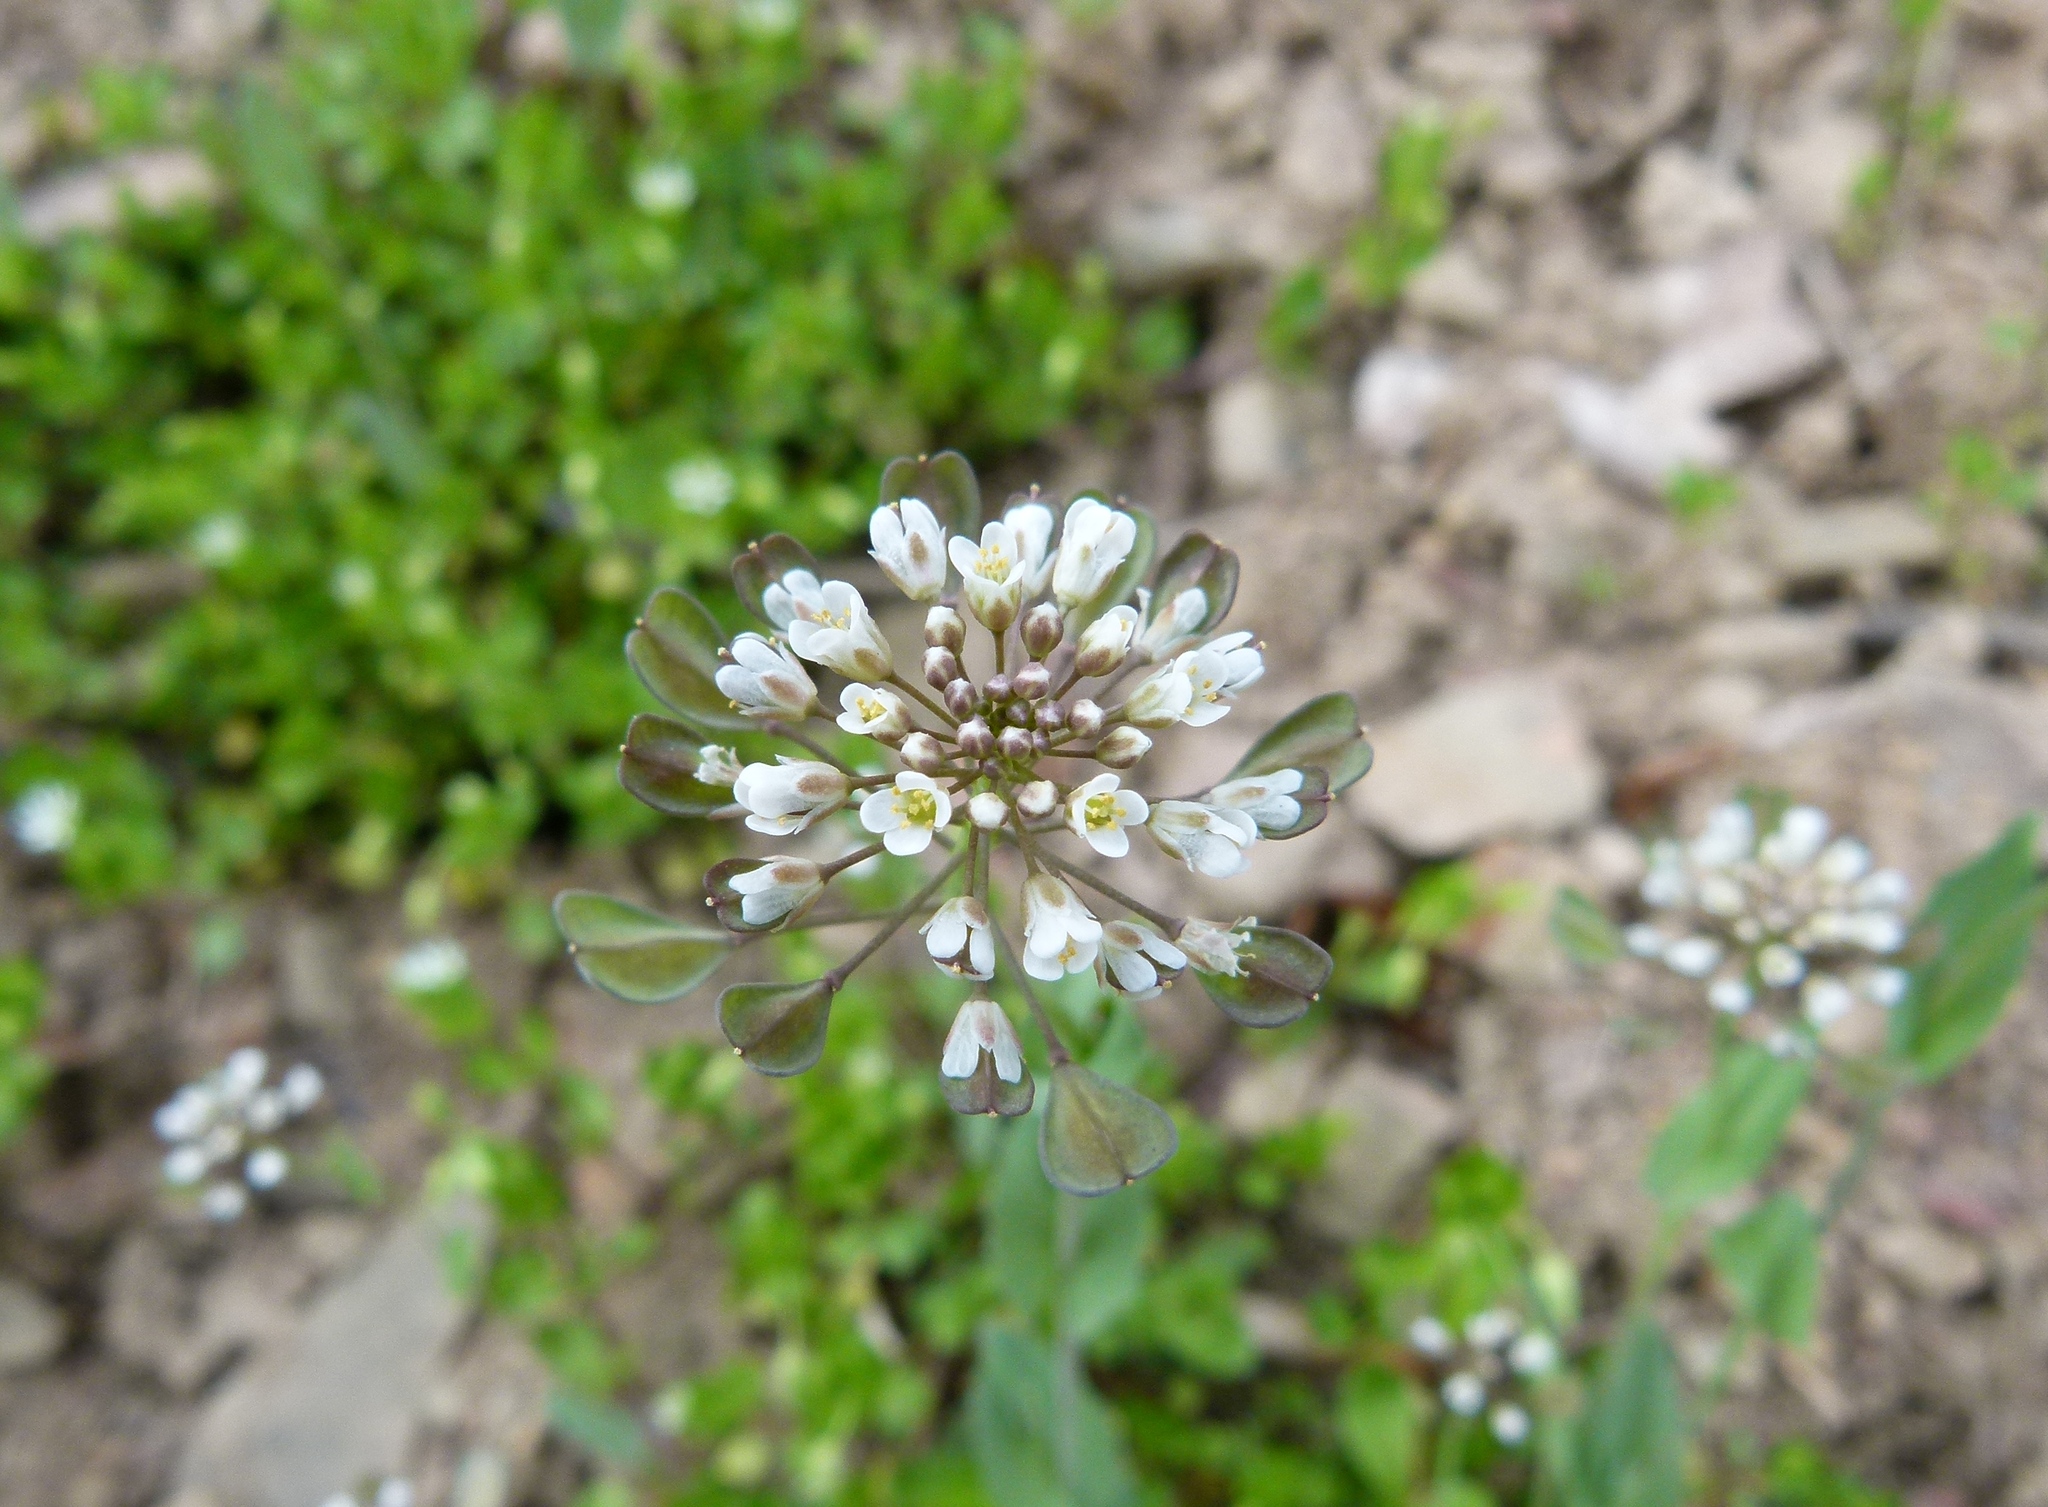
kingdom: Plantae
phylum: Tracheophyta
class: Magnoliopsida
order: Brassicales
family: Brassicaceae
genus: Noccaea
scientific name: Noccaea perfoliata
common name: Perfoliate pennycress
